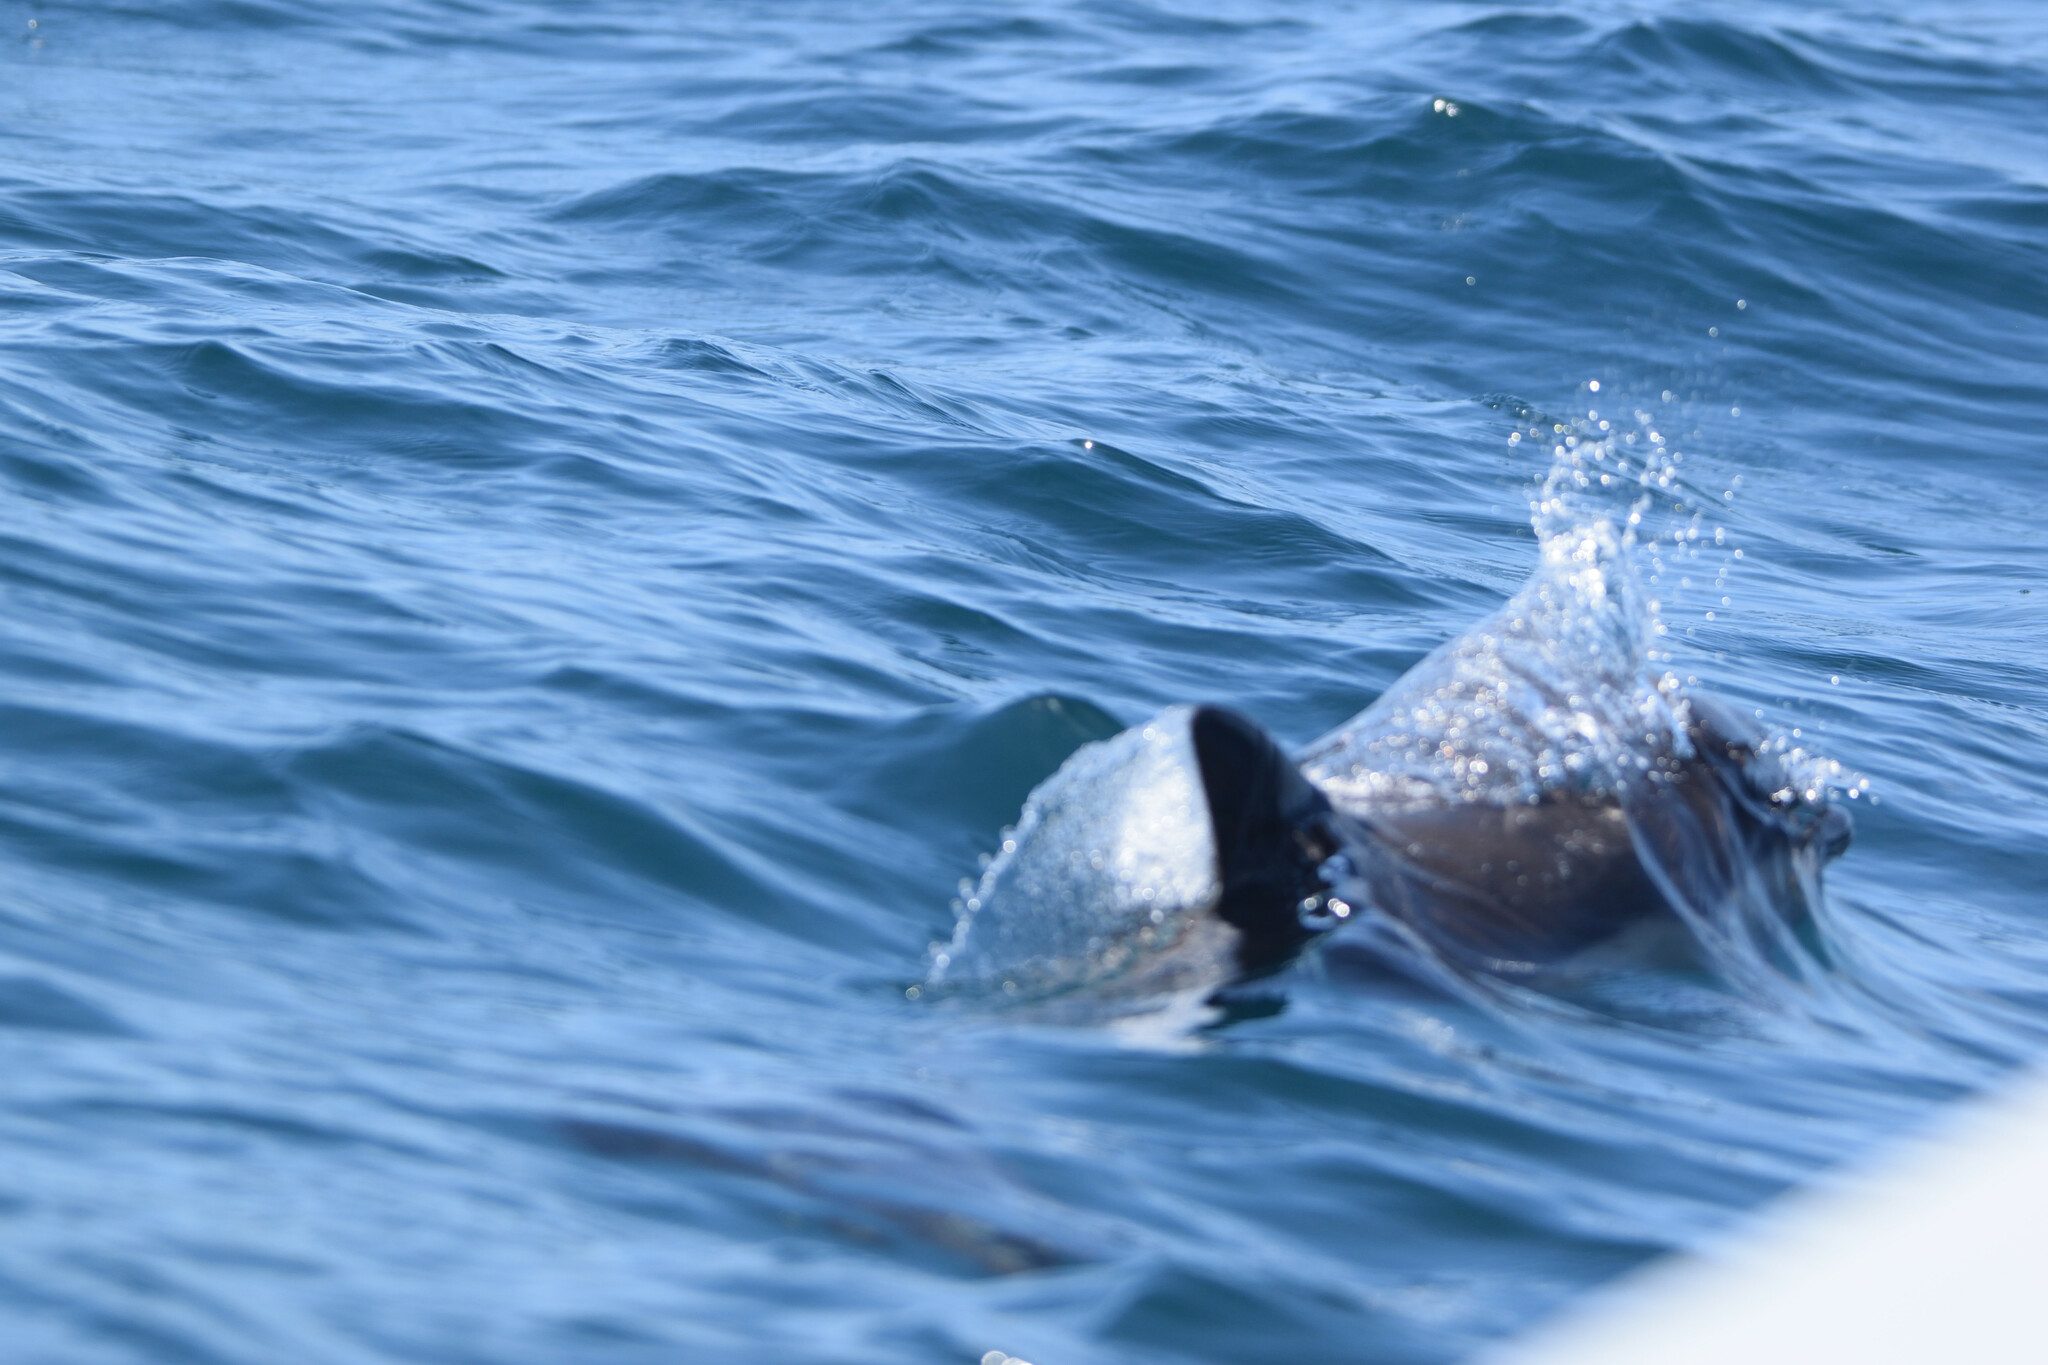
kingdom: Animalia
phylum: Chordata
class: Mammalia
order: Cetacea
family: Delphinidae
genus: Delphinus
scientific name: Delphinus delphis
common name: Common dolphin
